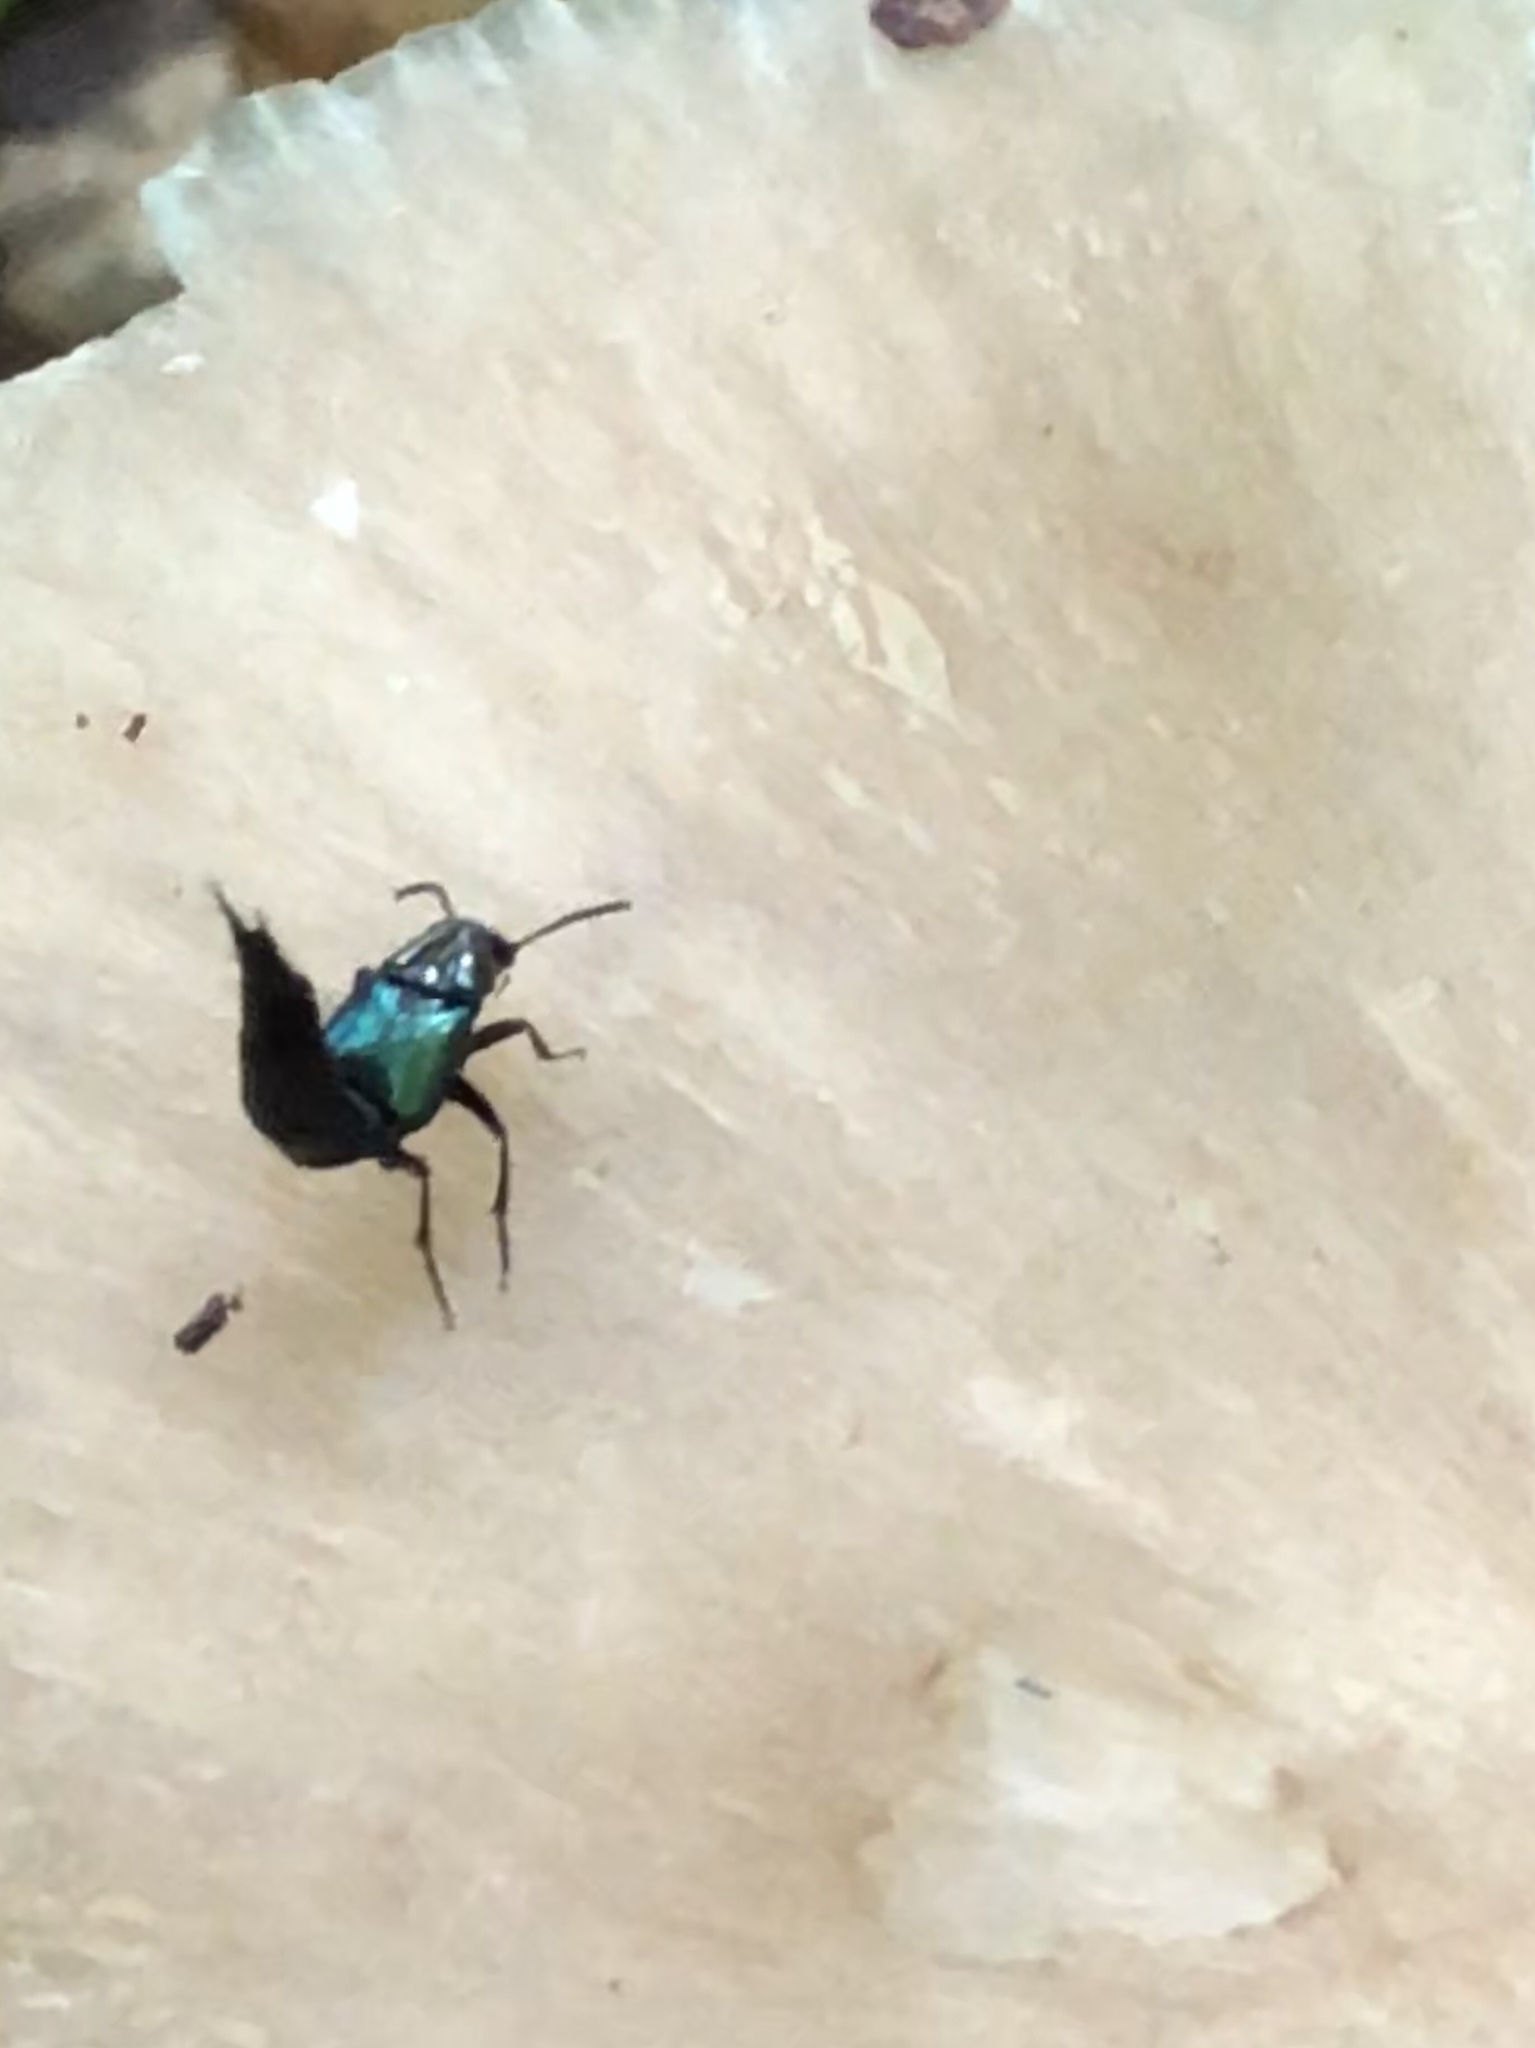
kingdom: Animalia
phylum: Arthropoda
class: Insecta
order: Coleoptera
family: Staphylinidae
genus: Philonthus
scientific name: Philonthus caeruleipennis
